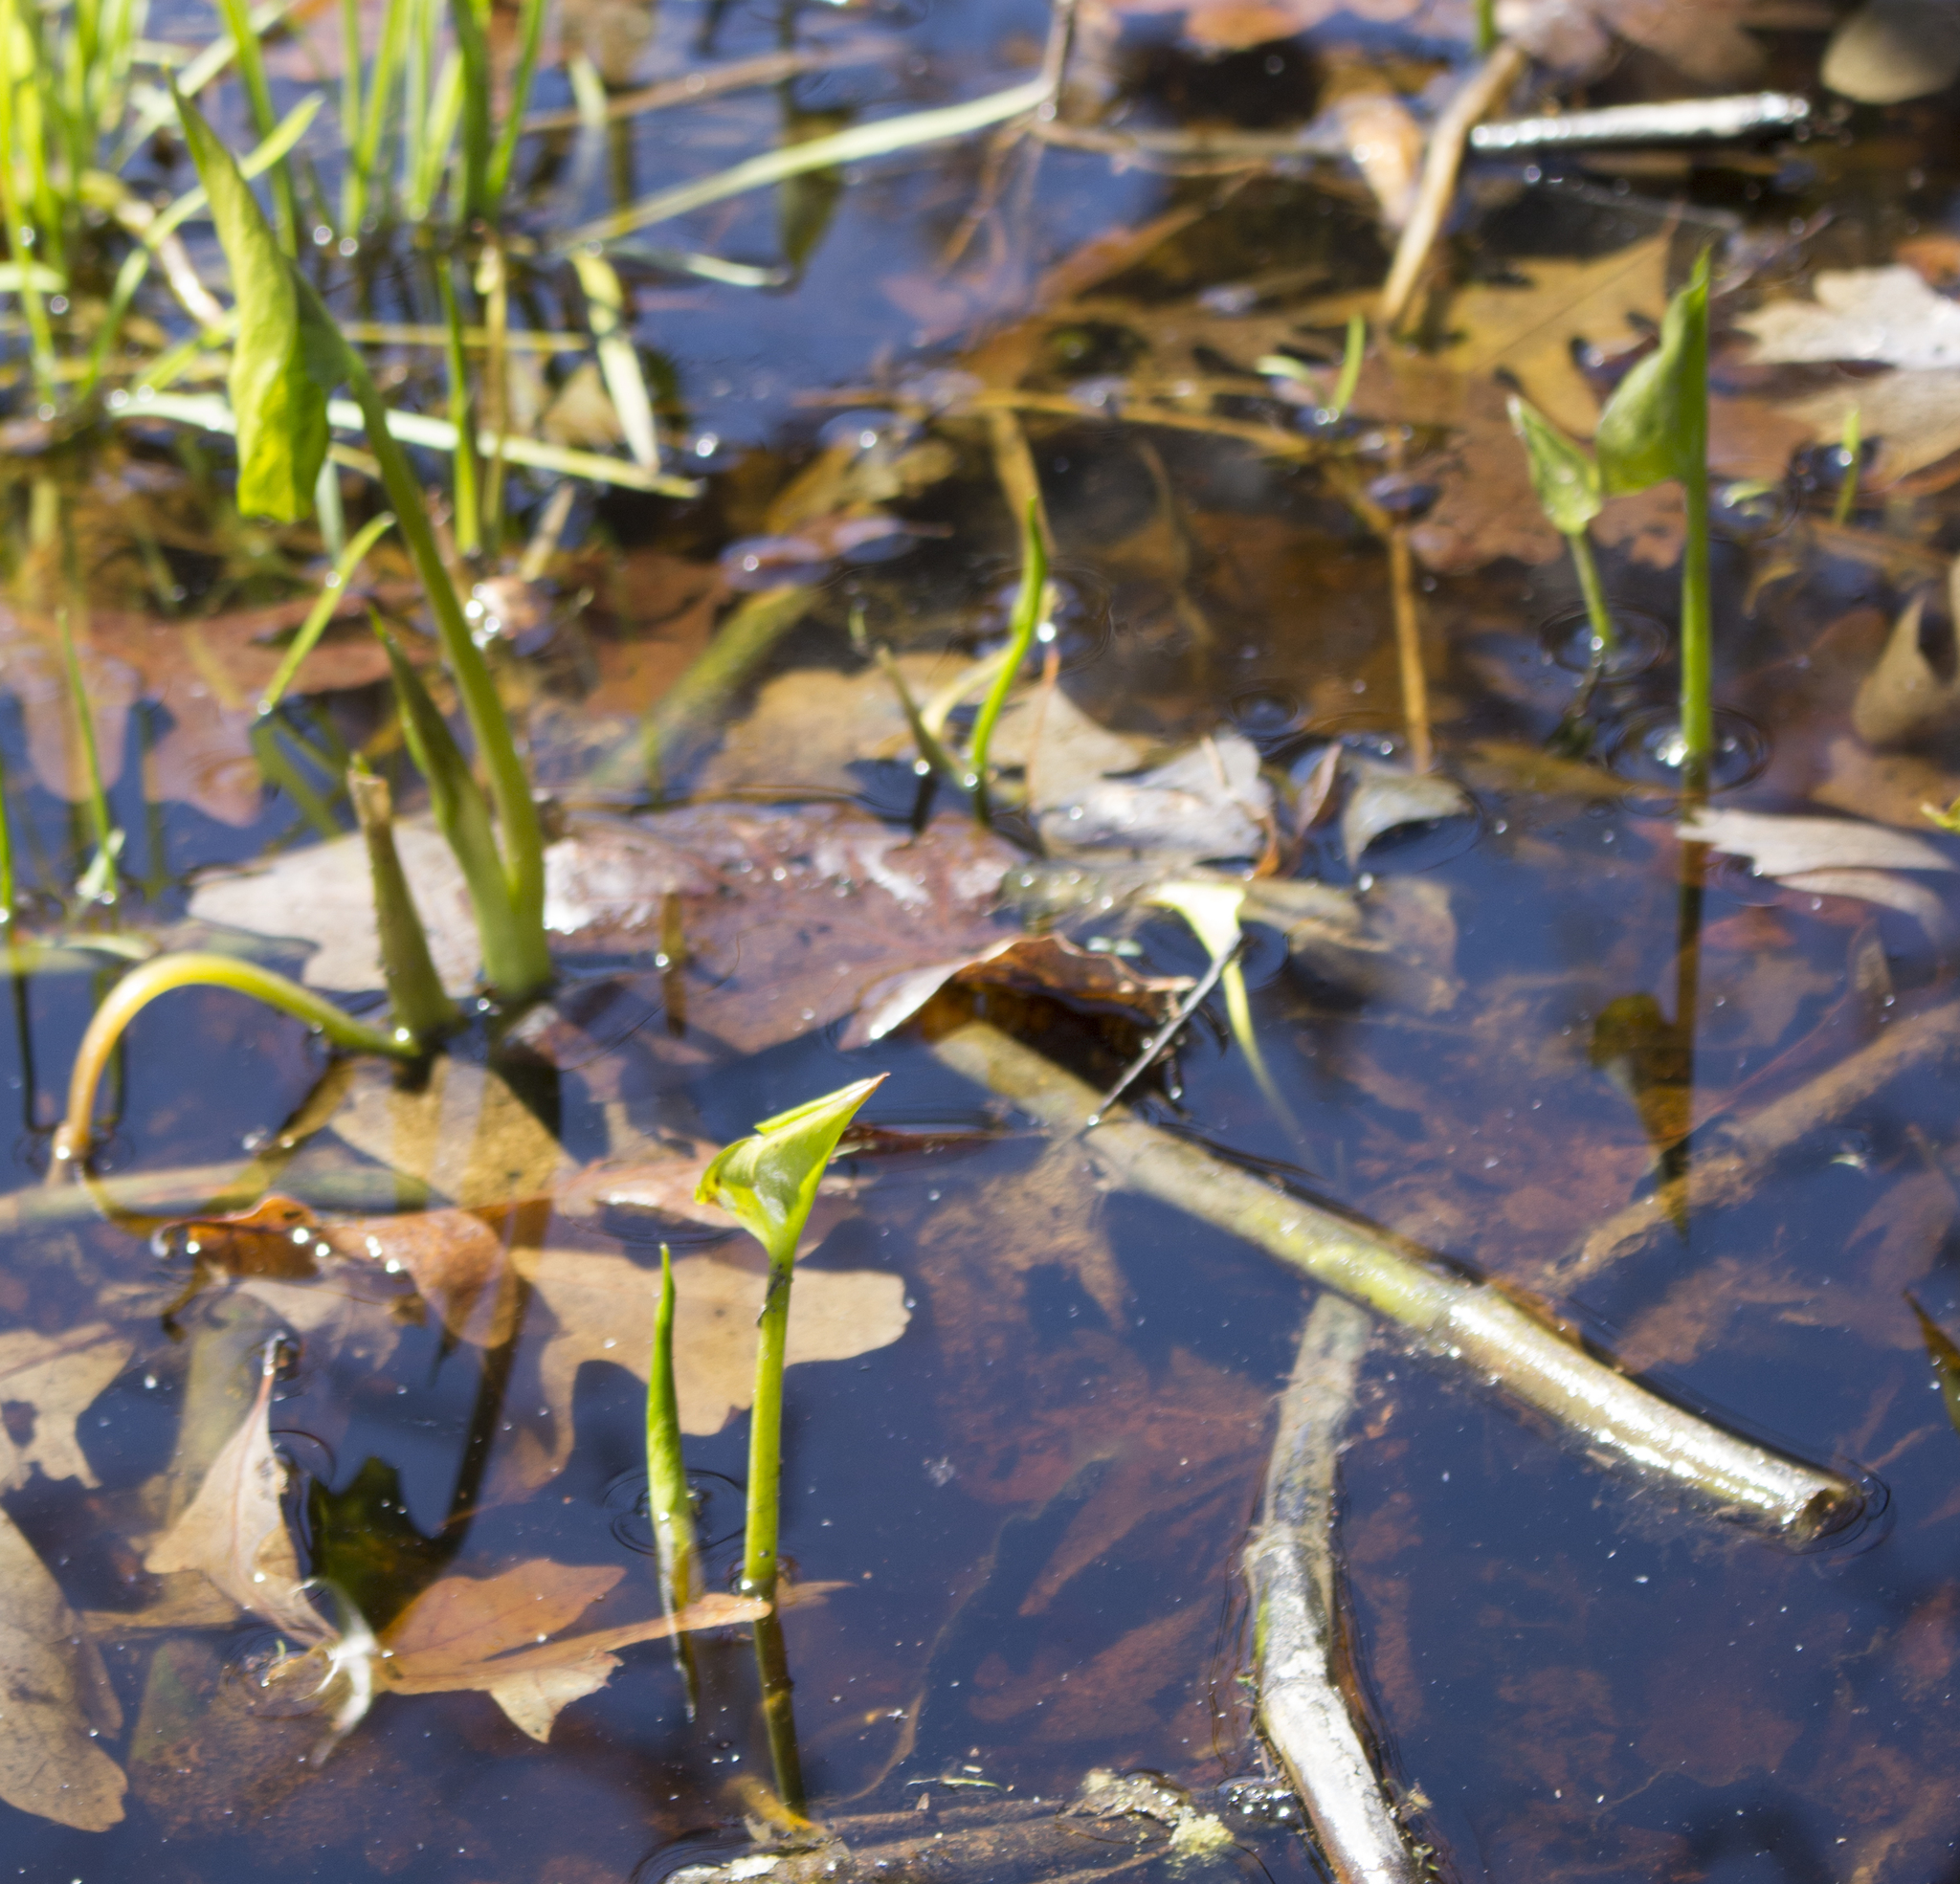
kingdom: Plantae
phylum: Tracheophyta
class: Liliopsida
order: Alismatales
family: Araceae
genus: Calla
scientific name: Calla palustris
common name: Bog arum
